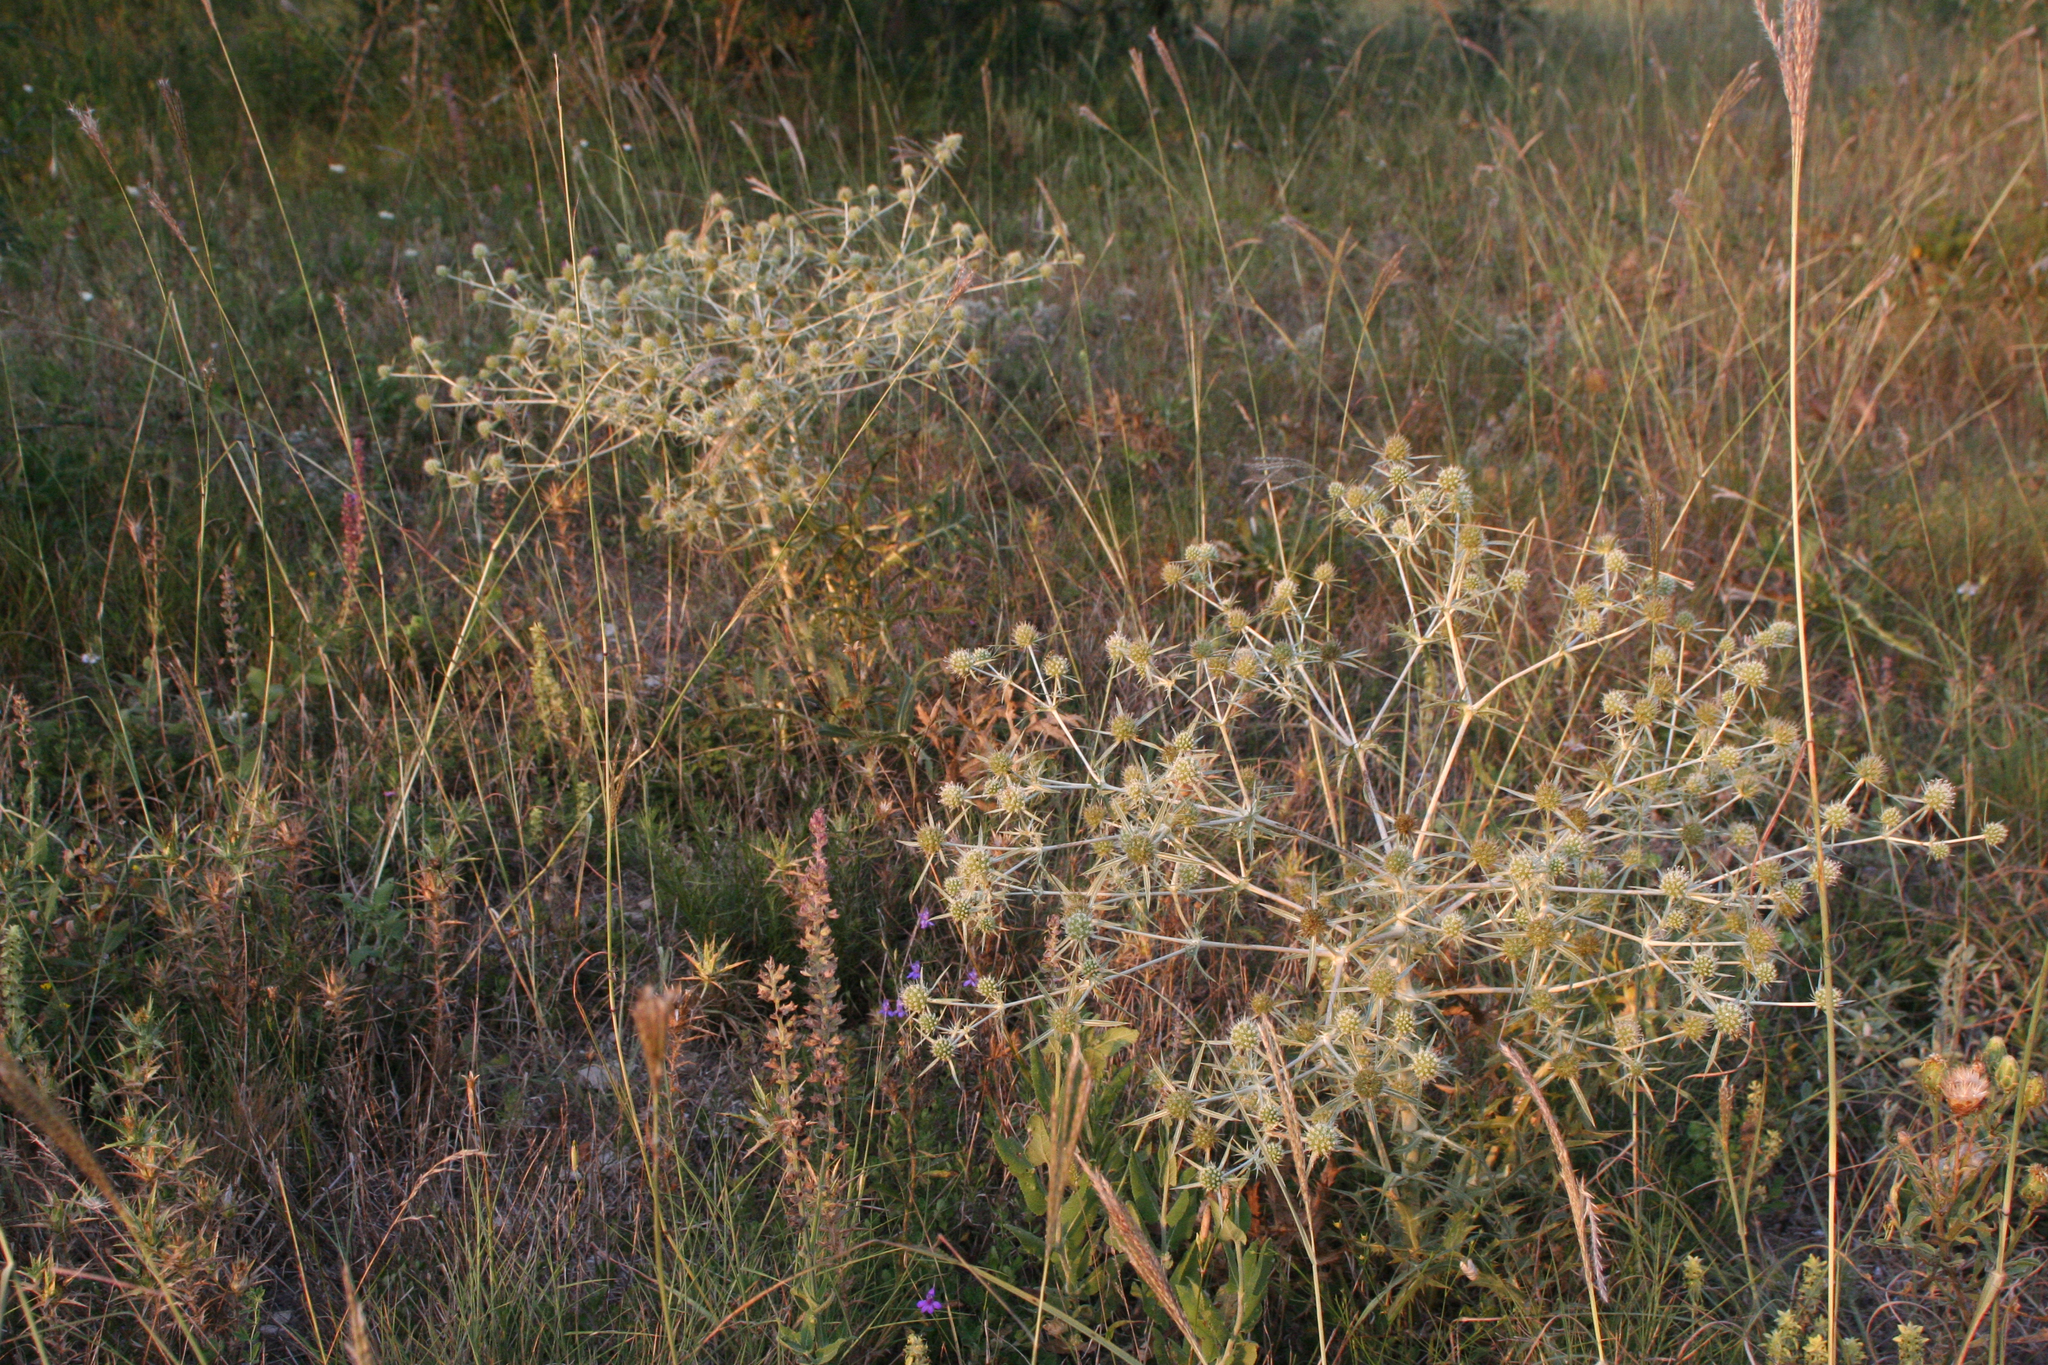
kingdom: Plantae
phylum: Tracheophyta
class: Magnoliopsida
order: Apiales
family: Apiaceae
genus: Eryngium
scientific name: Eryngium campestre
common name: Field eryngo
